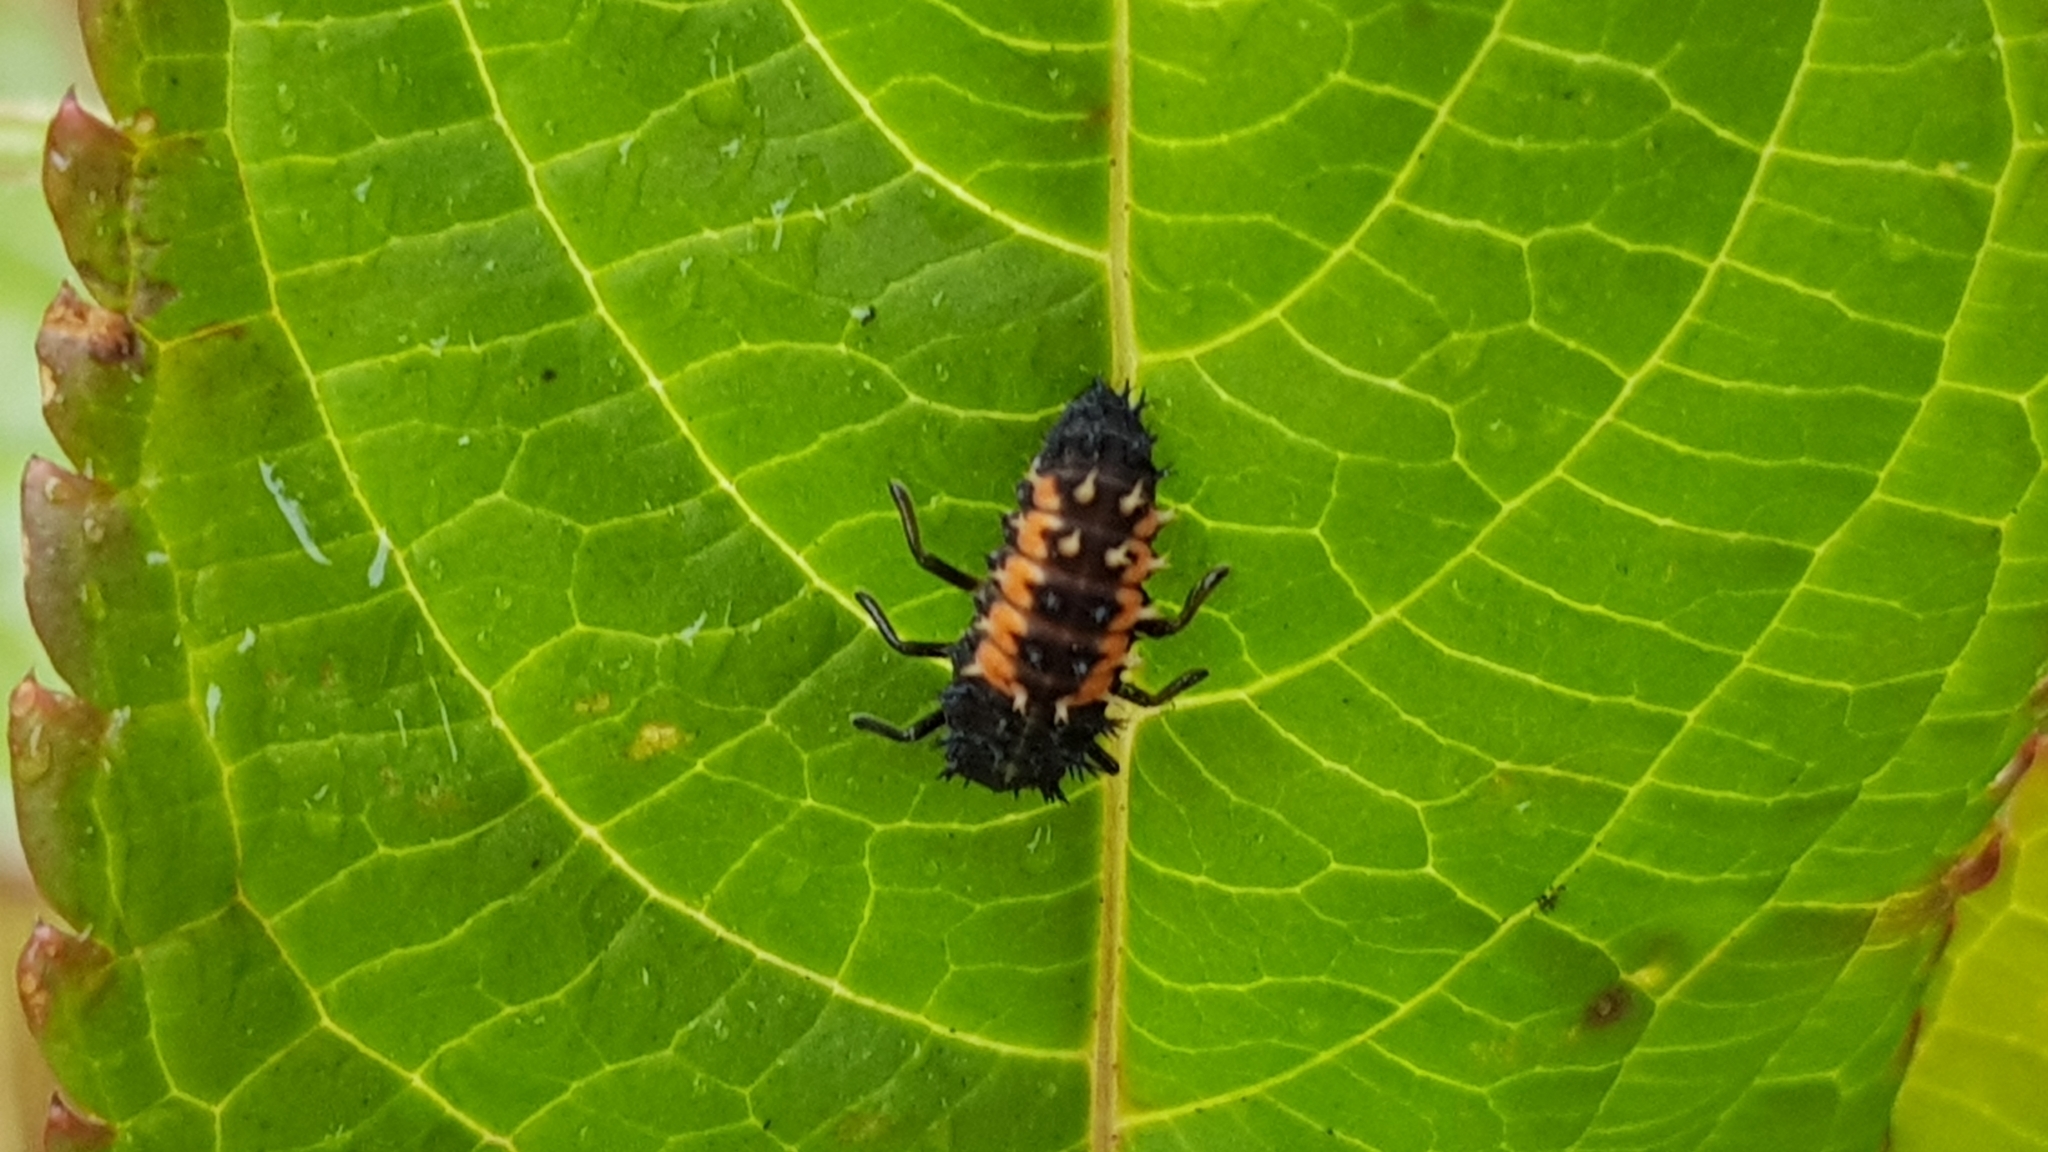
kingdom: Animalia
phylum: Arthropoda
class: Insecta
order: Coleoptera
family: Coccinellidae
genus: Harmonia
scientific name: Harmonia axyridis
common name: Harlequin ladybird
